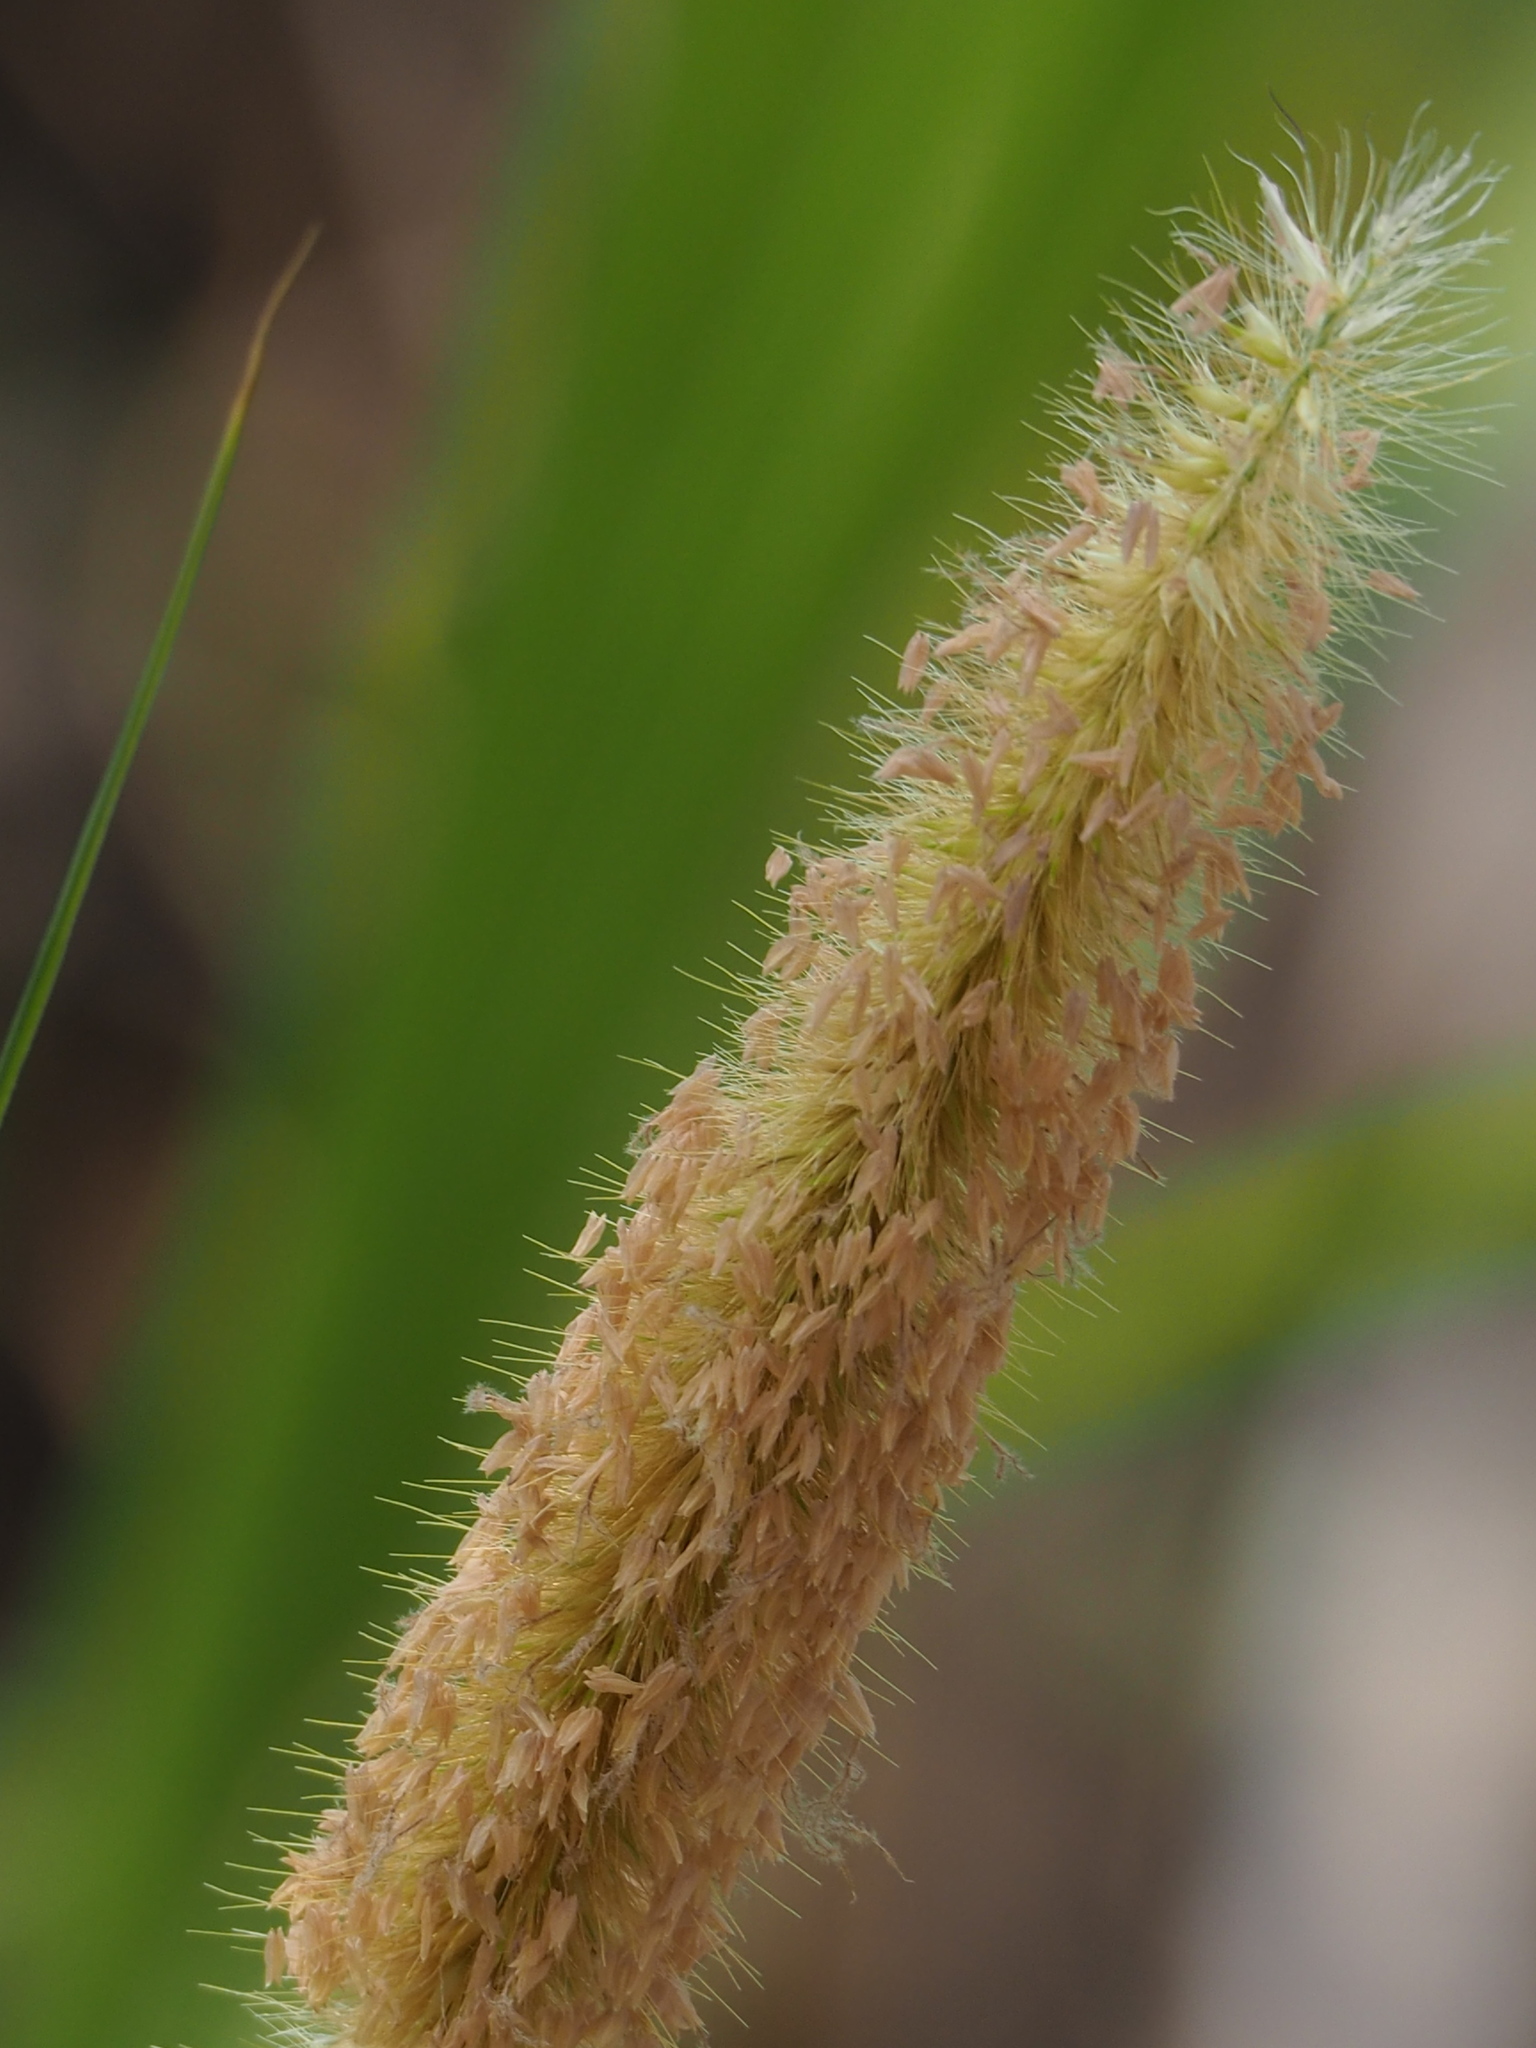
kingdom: Plantae
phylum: Tracheophyta
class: Liliopsida
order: Poales
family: Poaceae
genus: Cenchrus
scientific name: Cenchrus purpureus
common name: Elephant grass
